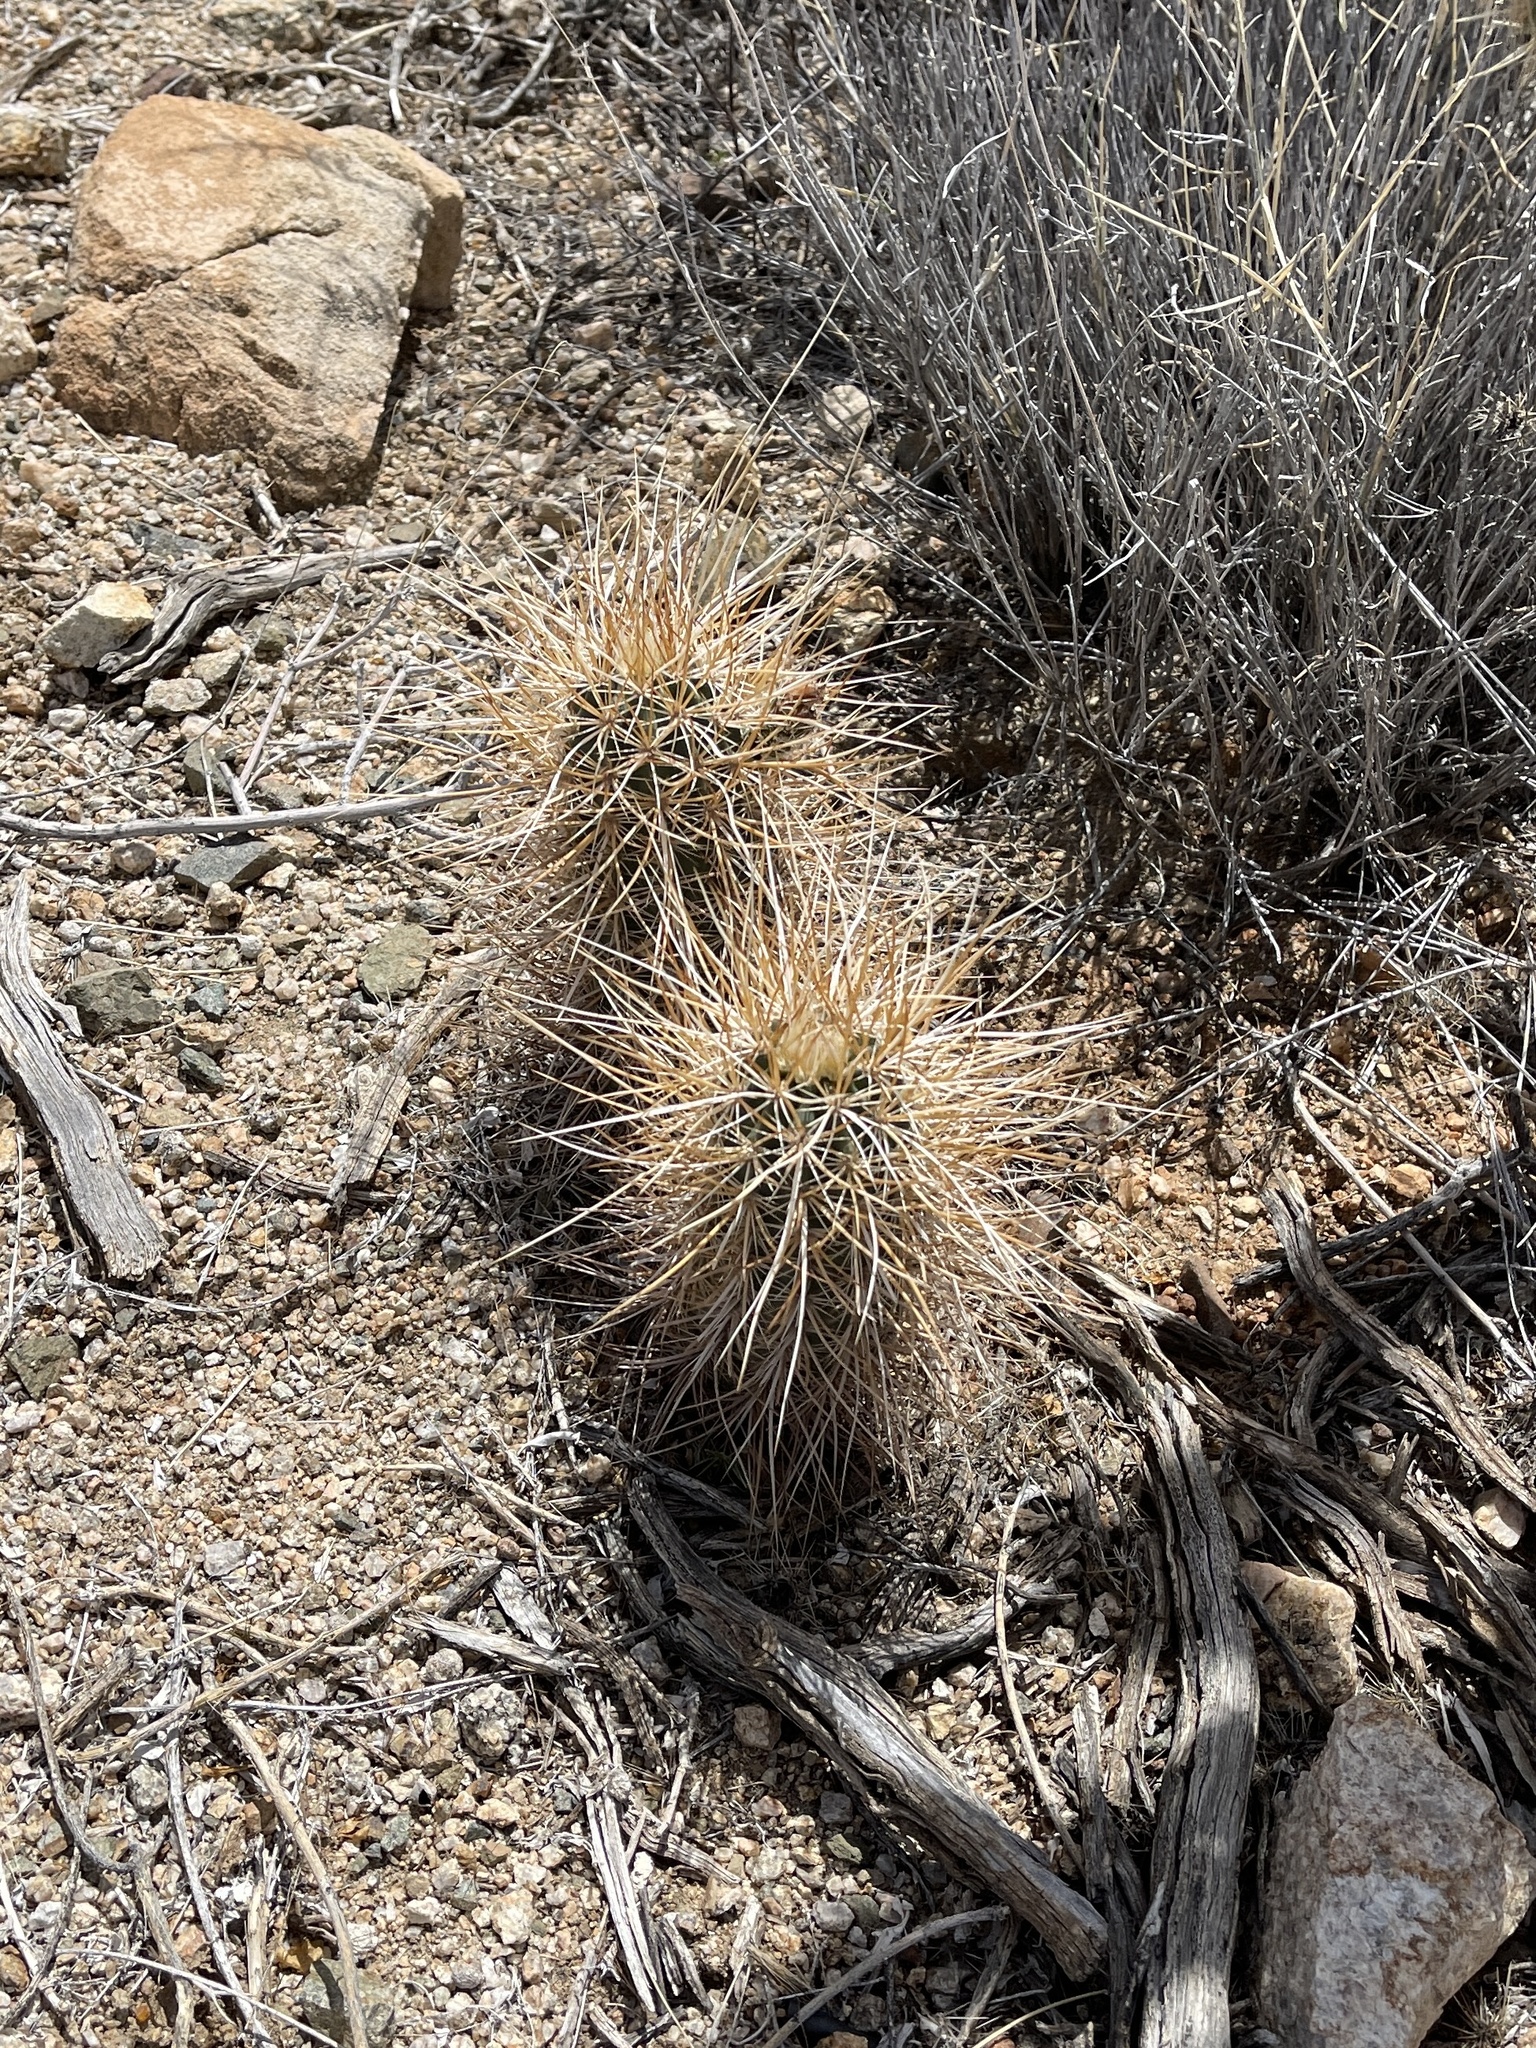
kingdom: Plantae
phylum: Tracheophyta
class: Magnoliopsida
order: Caryophyllales
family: Cactaceae
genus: Echinocereus
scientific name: Echinocereus engelmannii
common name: Engelmann's hedgehog cactus
